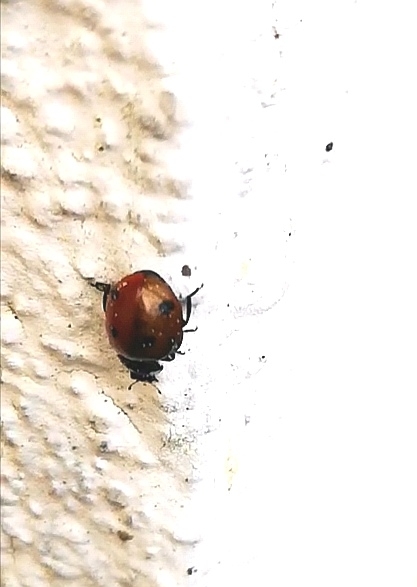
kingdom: Animalia
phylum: Arthropoda
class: Insecta
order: Coleoptera
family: Coccinellidae
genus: Coccinella
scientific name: Coccinella septempunctata
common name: Sevenspotted lady beetle
